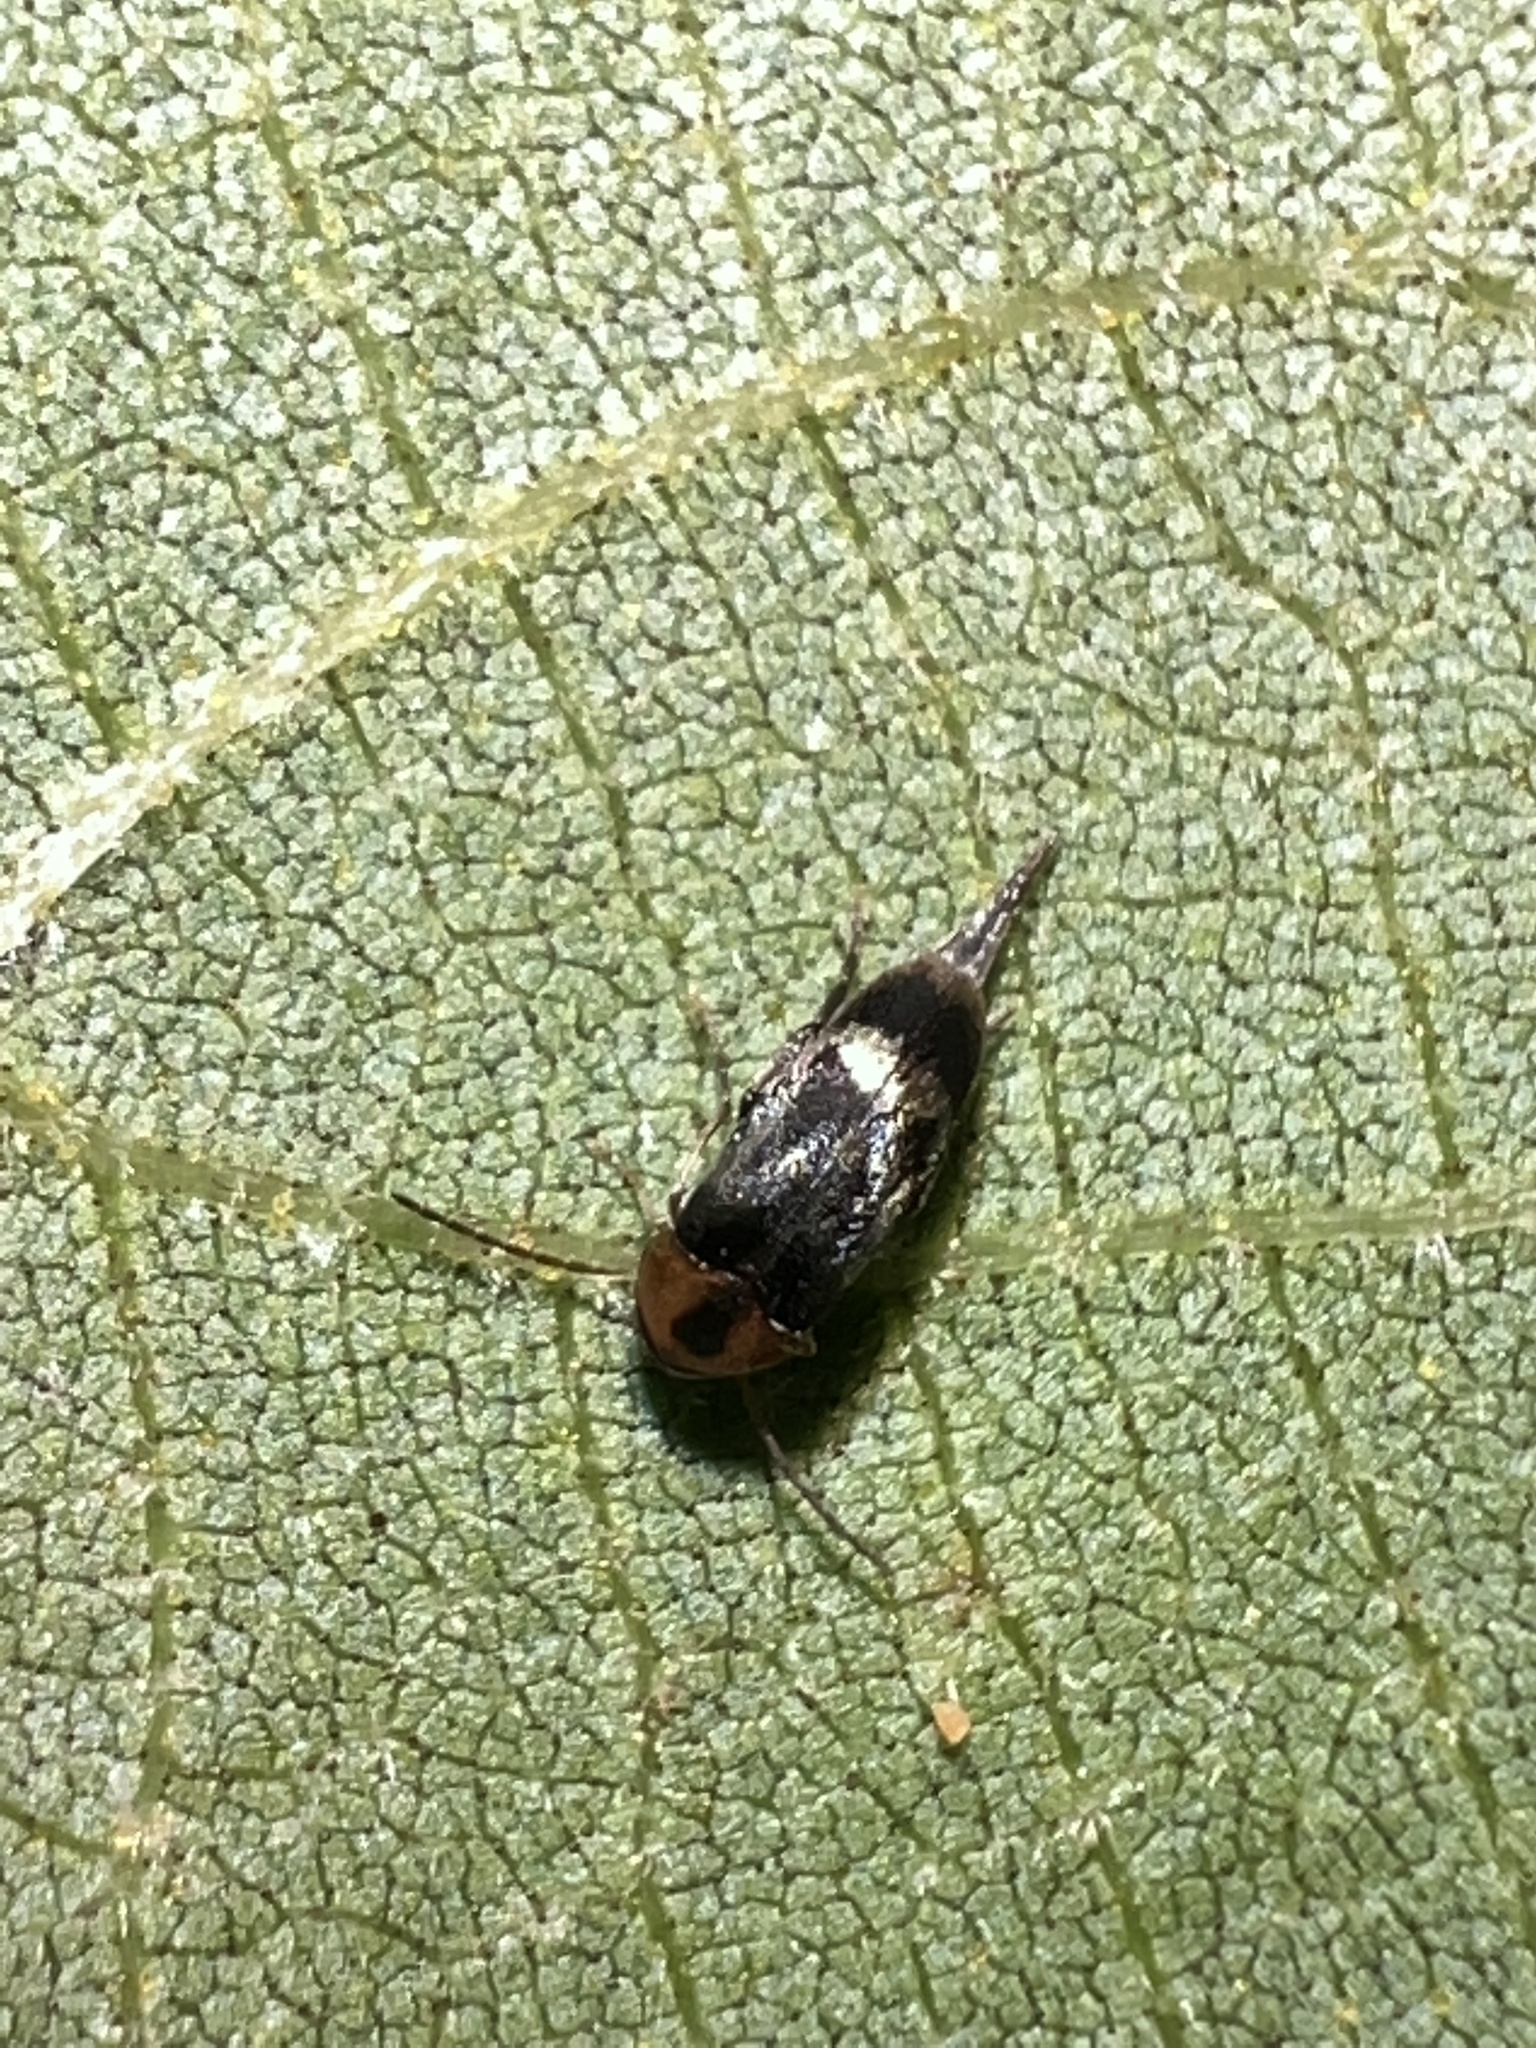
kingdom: Animalia
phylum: Arthropoda
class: Insecta
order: Coleoptera
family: Mordellidae
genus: Falsomordellistena
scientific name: Falsomordellistena hebraica
